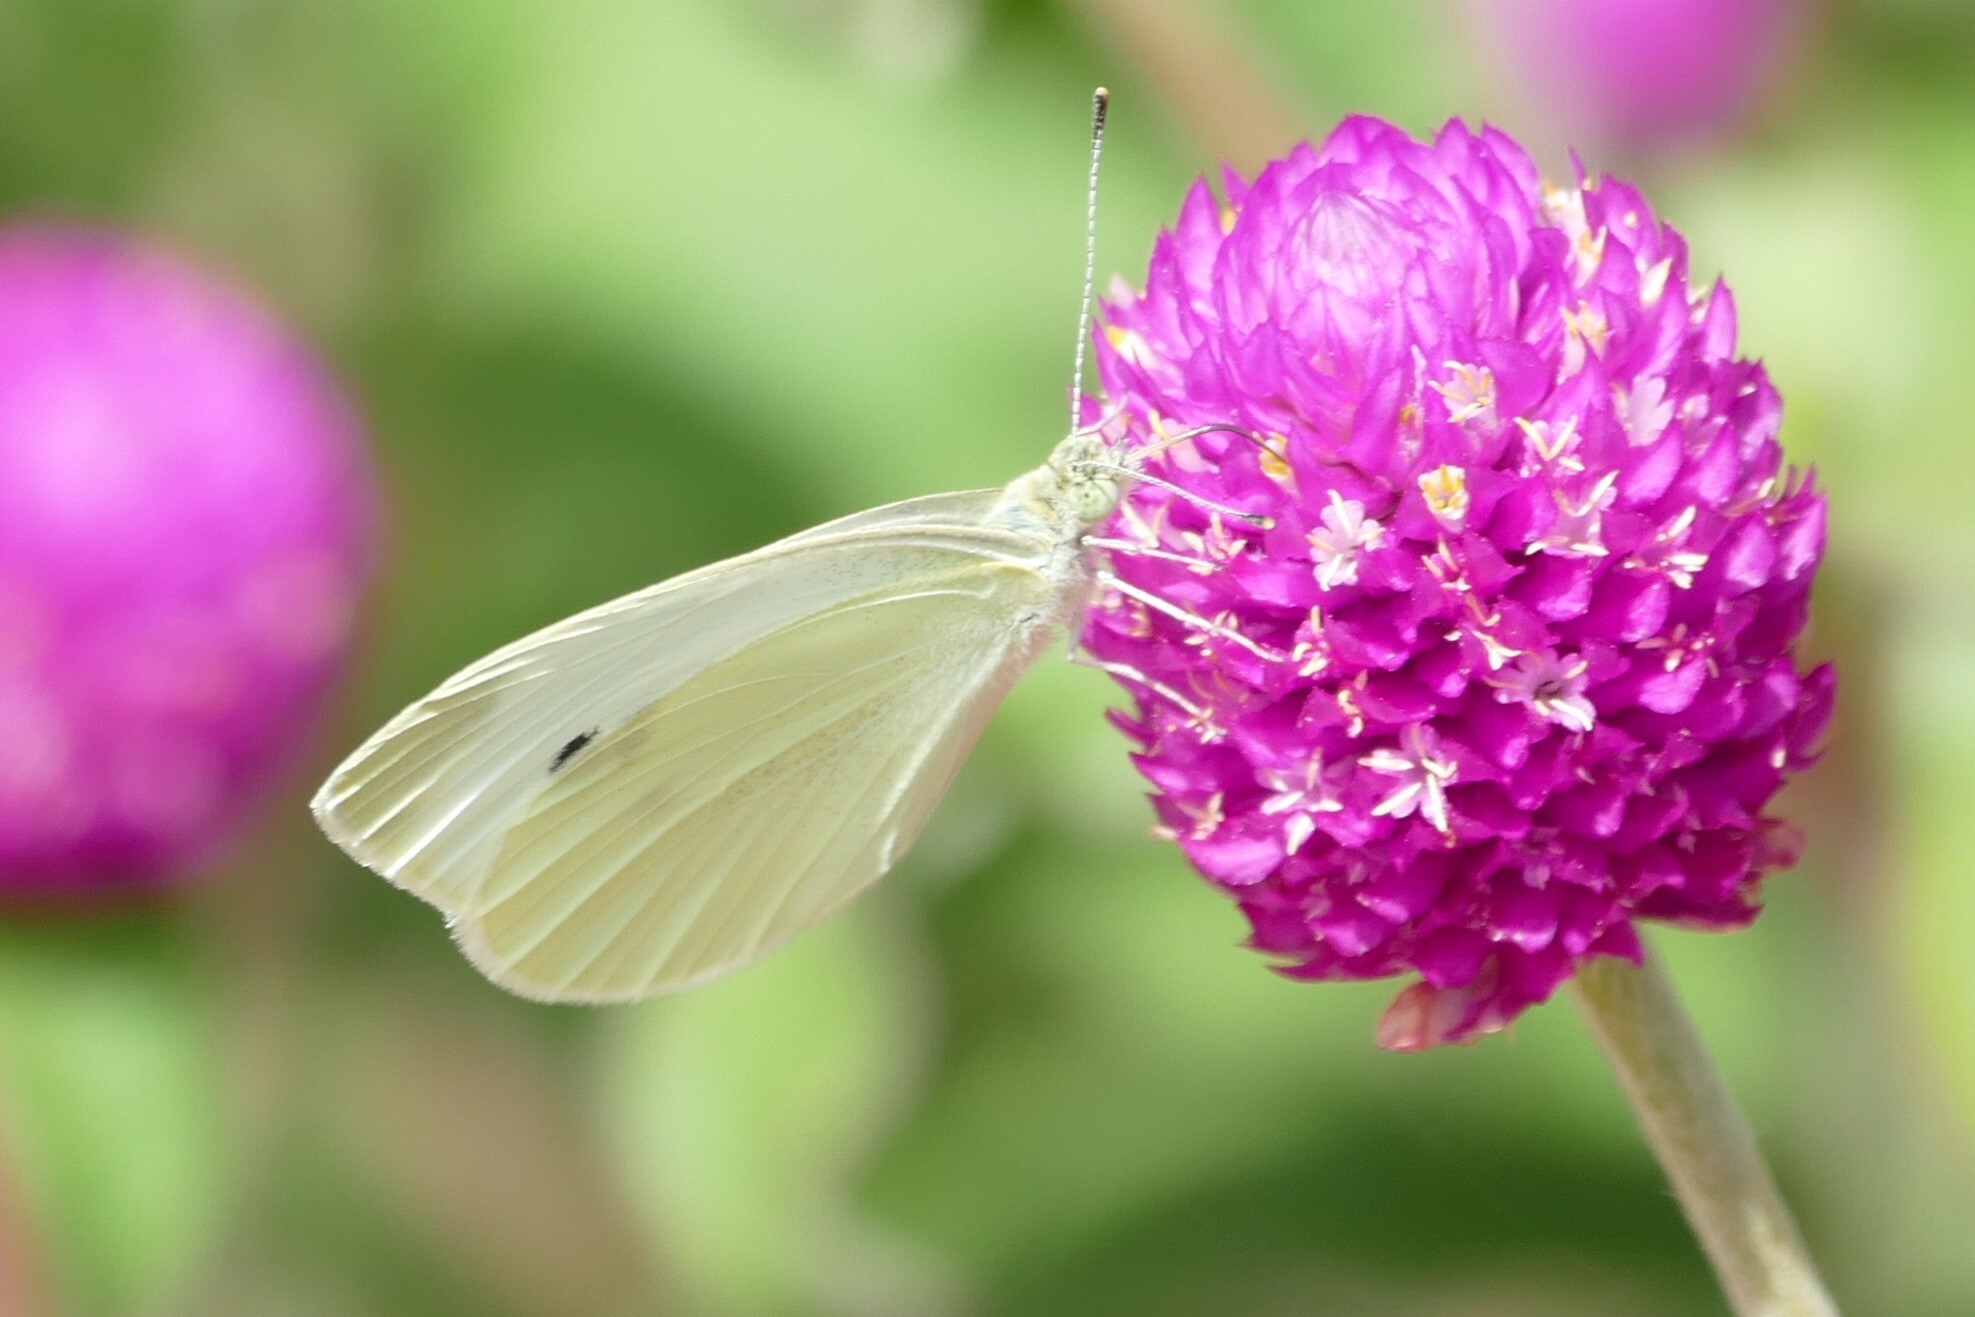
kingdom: Animalia
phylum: Arthropoda
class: Insecta
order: Lepidoptera
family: Pieridae
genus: Pieris
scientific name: Pieris rapae
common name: Small white
